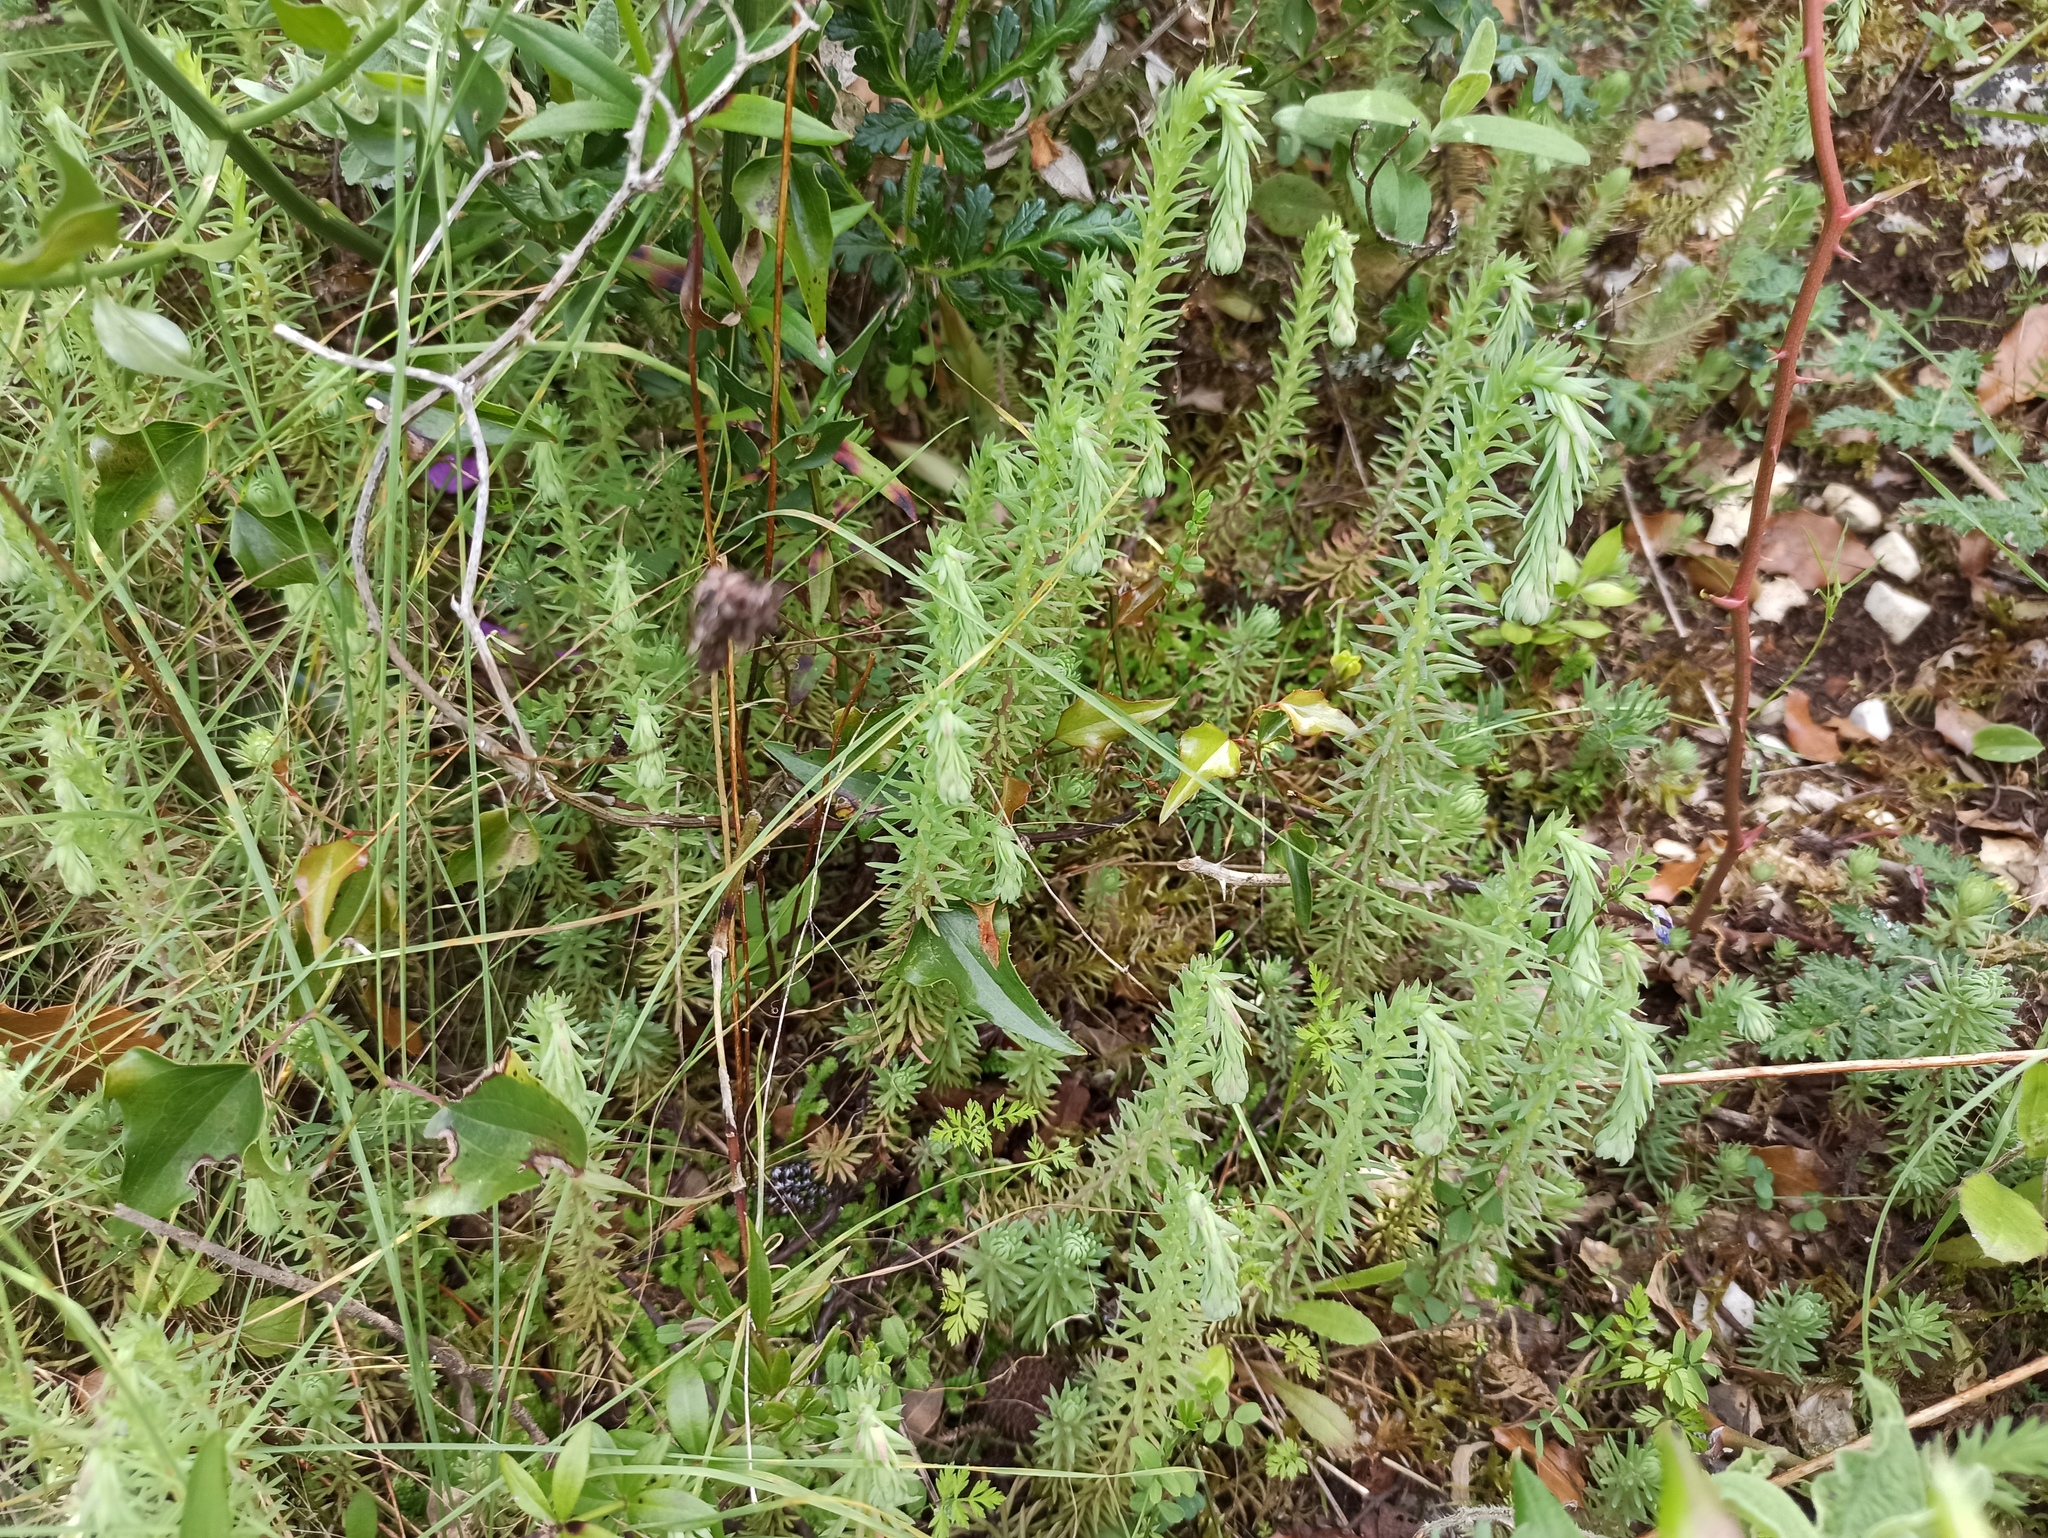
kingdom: Plantae
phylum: Tracheophyta
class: Magnoliopsida
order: Saxifragales
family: Crassulaceae
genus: Petrosedum
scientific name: Petrosedum forsterianum
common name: Forster's stonecrop
